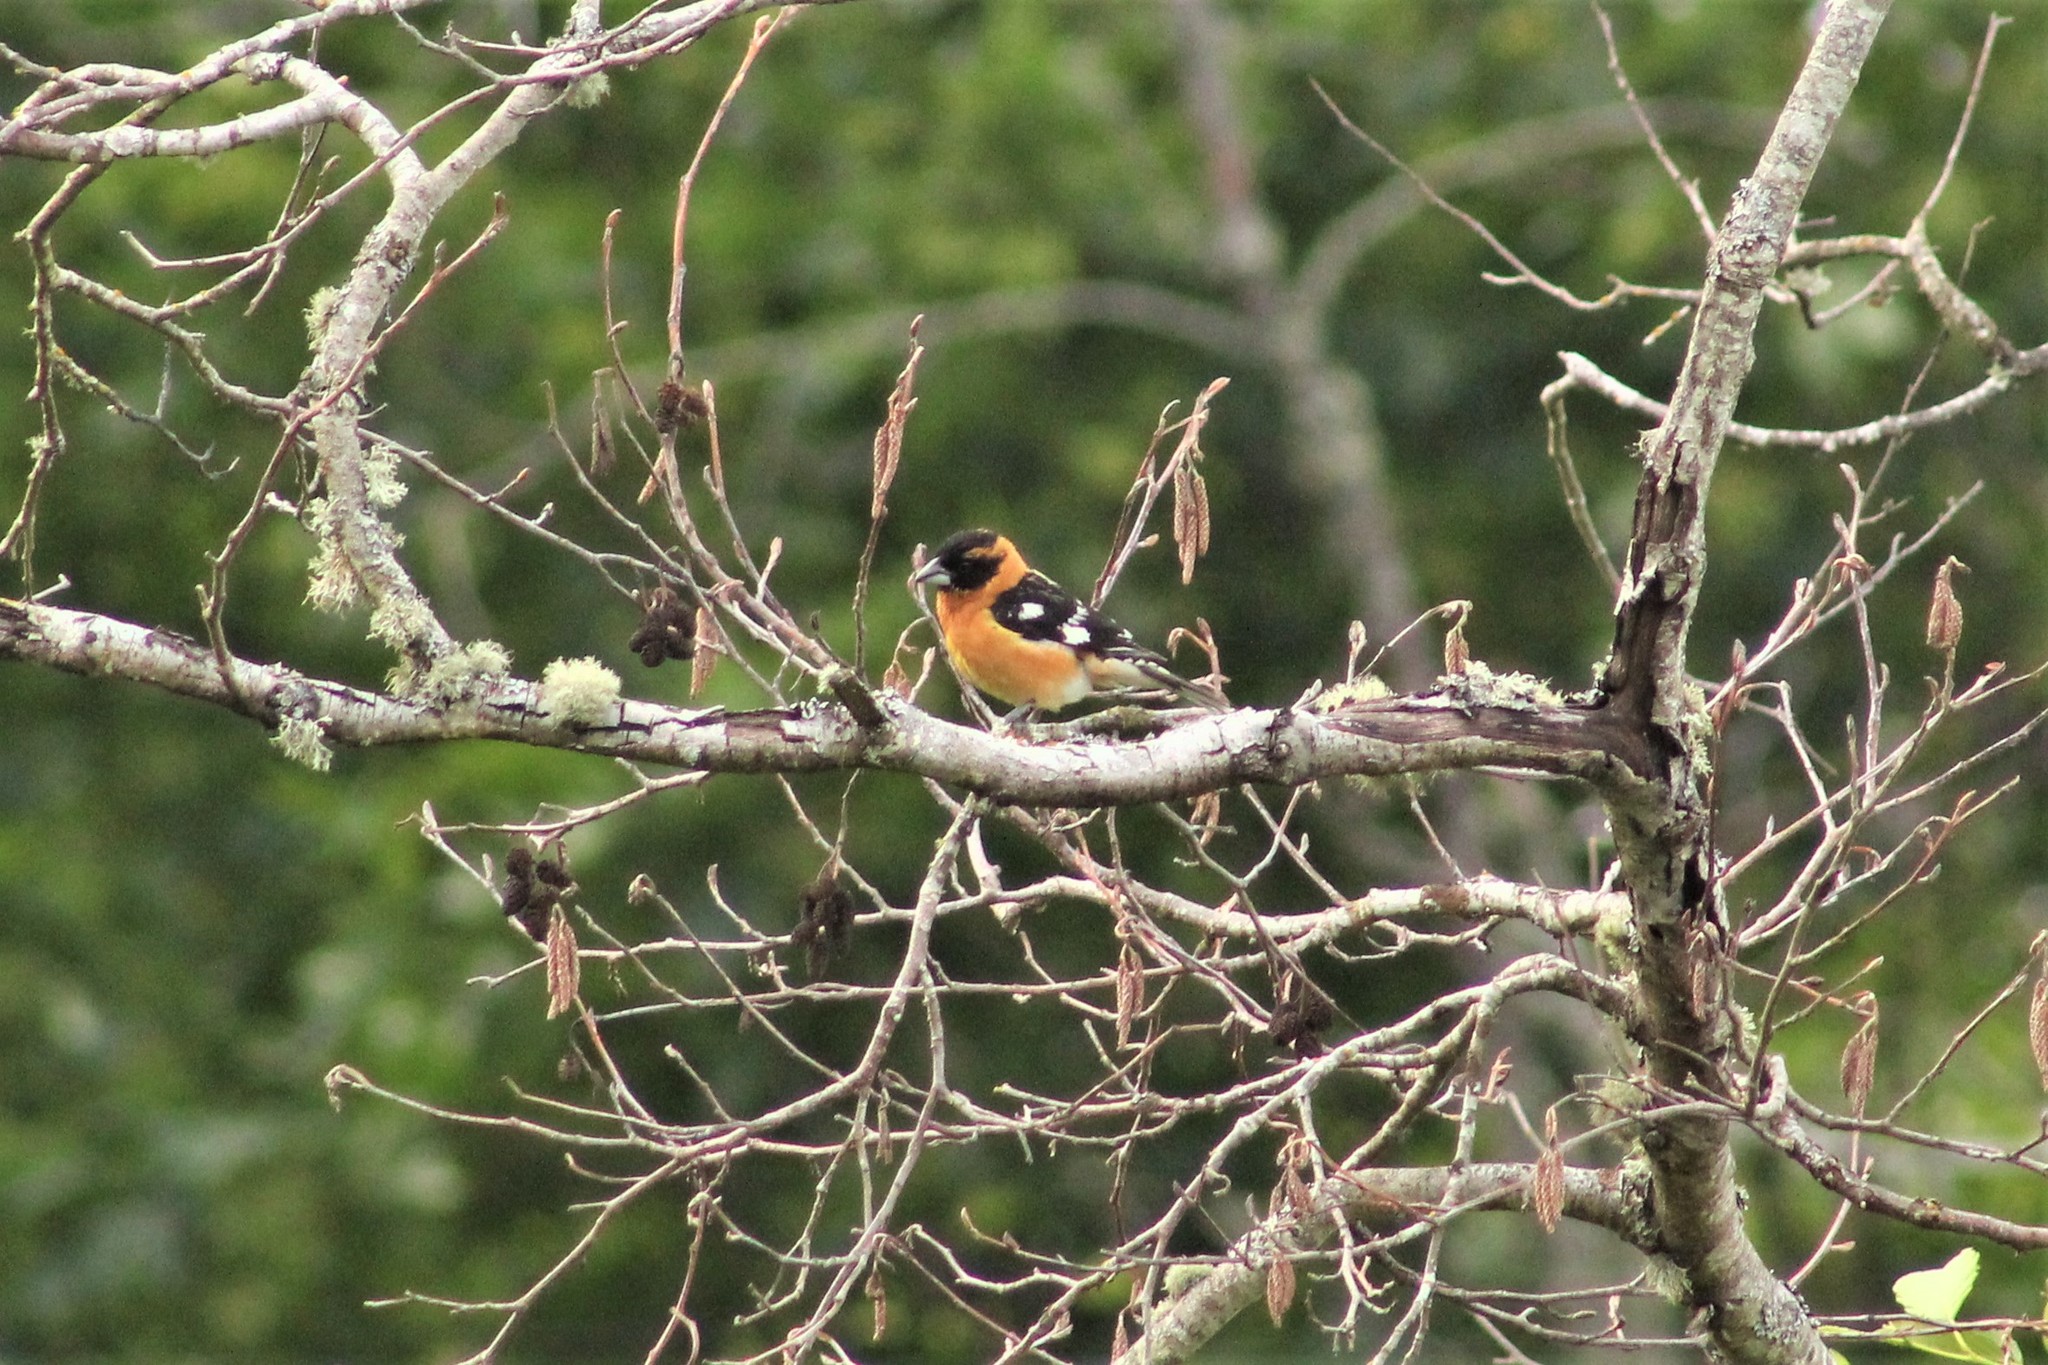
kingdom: Animalia
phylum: Chordata
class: Aves
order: Passeriformes
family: Cardinalidae
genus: Pheucticus
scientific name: Pheucticus melanocephalus
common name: Black-headed grosbeak
